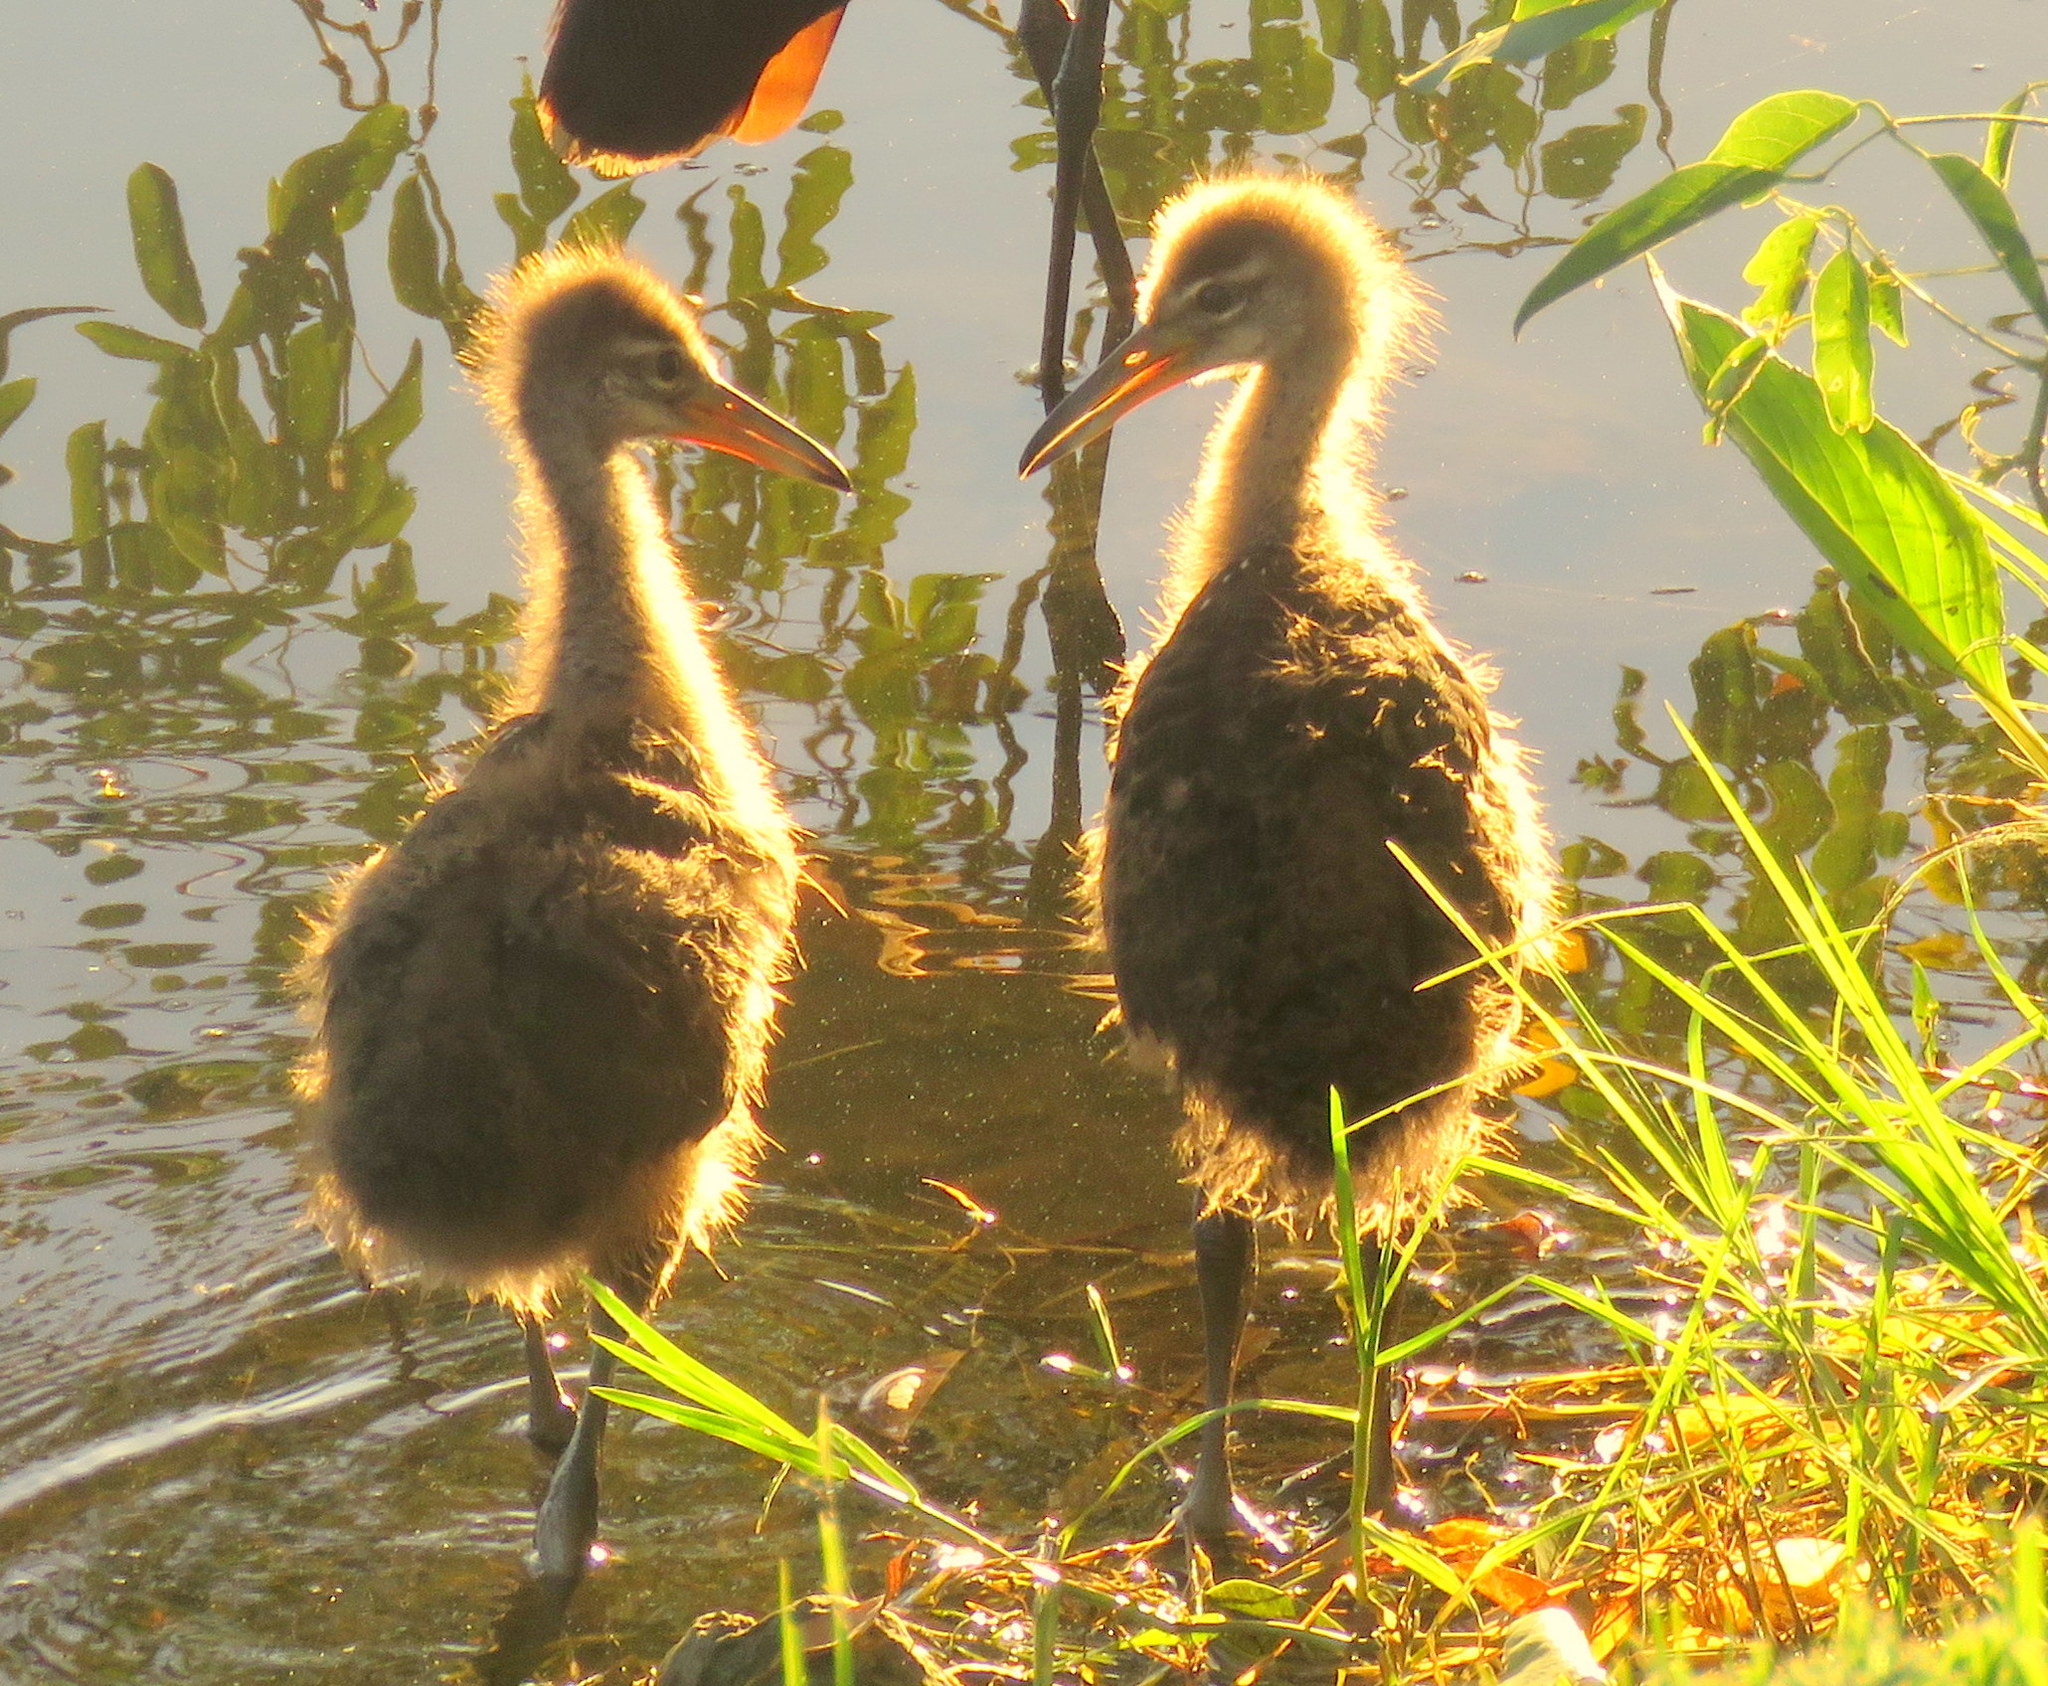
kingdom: Animalia
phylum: Chordata
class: Aves
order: Gruiformes
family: Aramidae
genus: Aramus
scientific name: Aramus guarauna
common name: Limpkin
